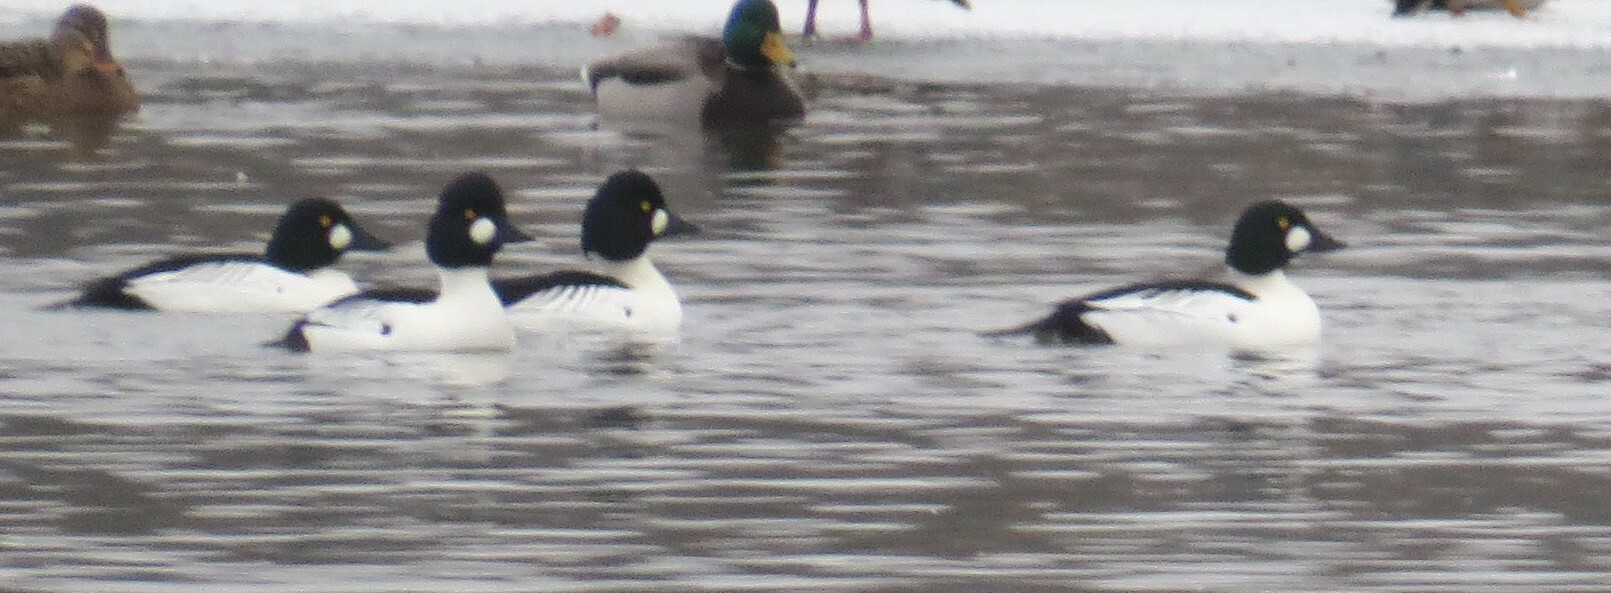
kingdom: Animalia
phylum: Chordata
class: Aves
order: Anseriformes
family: Anatidae
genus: Bucephala
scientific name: Bucephala clangula
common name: Common goldeneye
